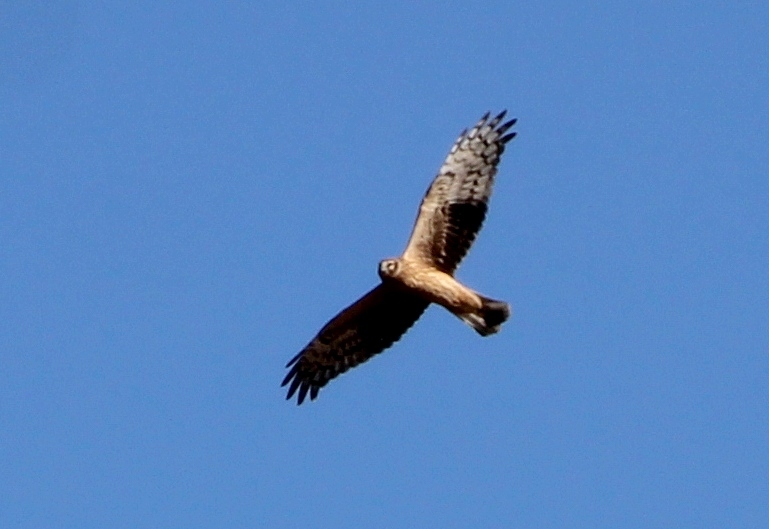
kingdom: Animalia
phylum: Chordata
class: Aves
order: Accipitriformes
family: Accipitridae
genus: Circus
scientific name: Circus cyaneus
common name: Hen harrier
